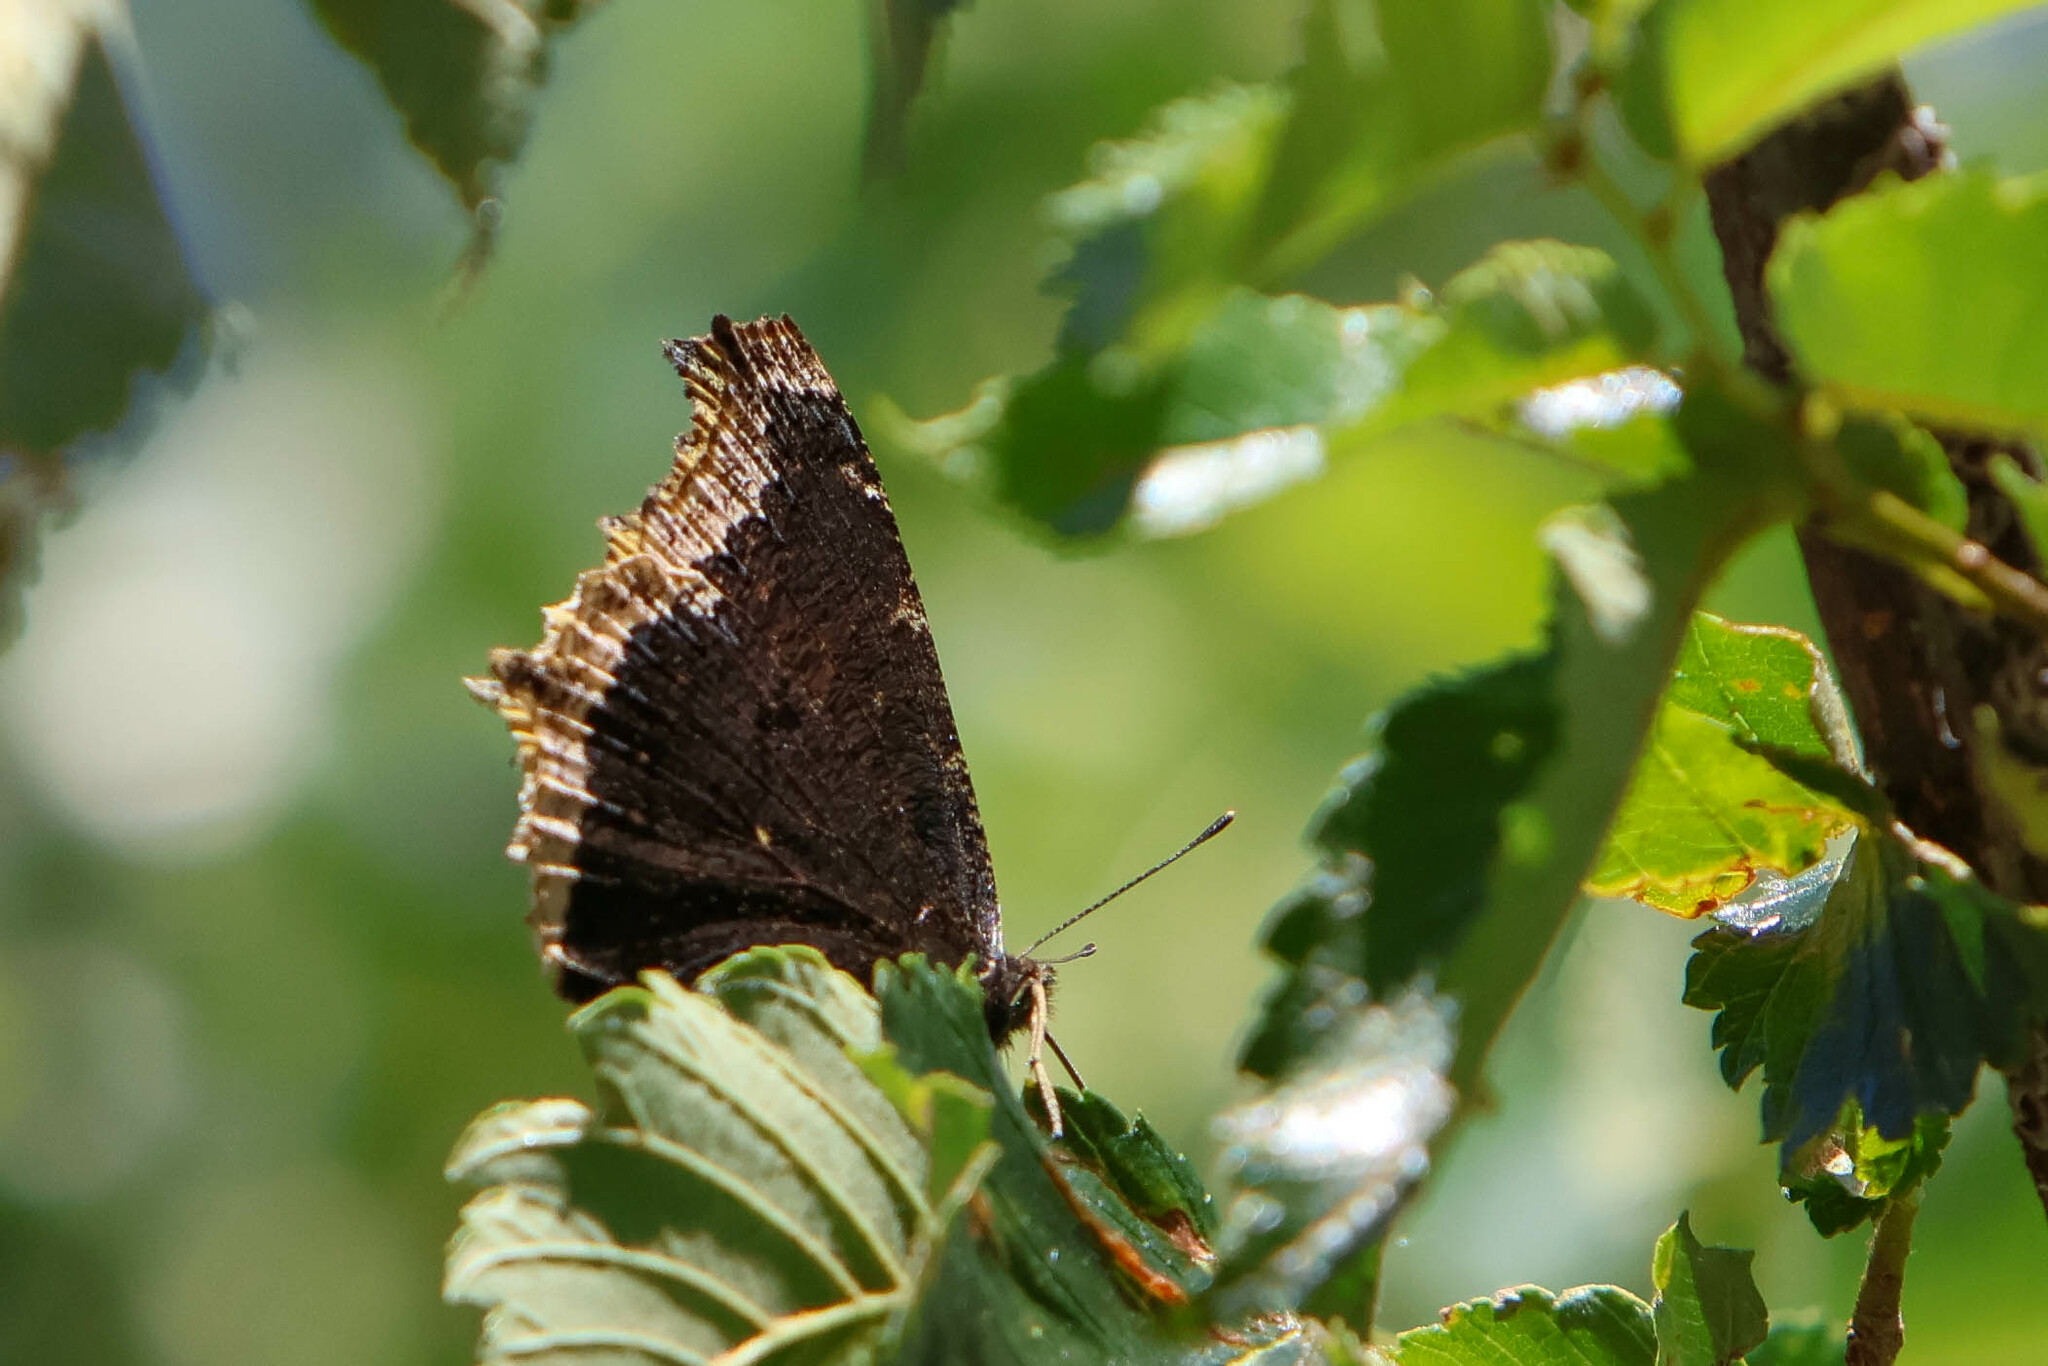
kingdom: Animalia
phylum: Arthropoda
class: Insecta
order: Lepidoptera
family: Nymphalidae
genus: Nymphalis
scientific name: Nymphalis antiopa
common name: Camberwell beauty
